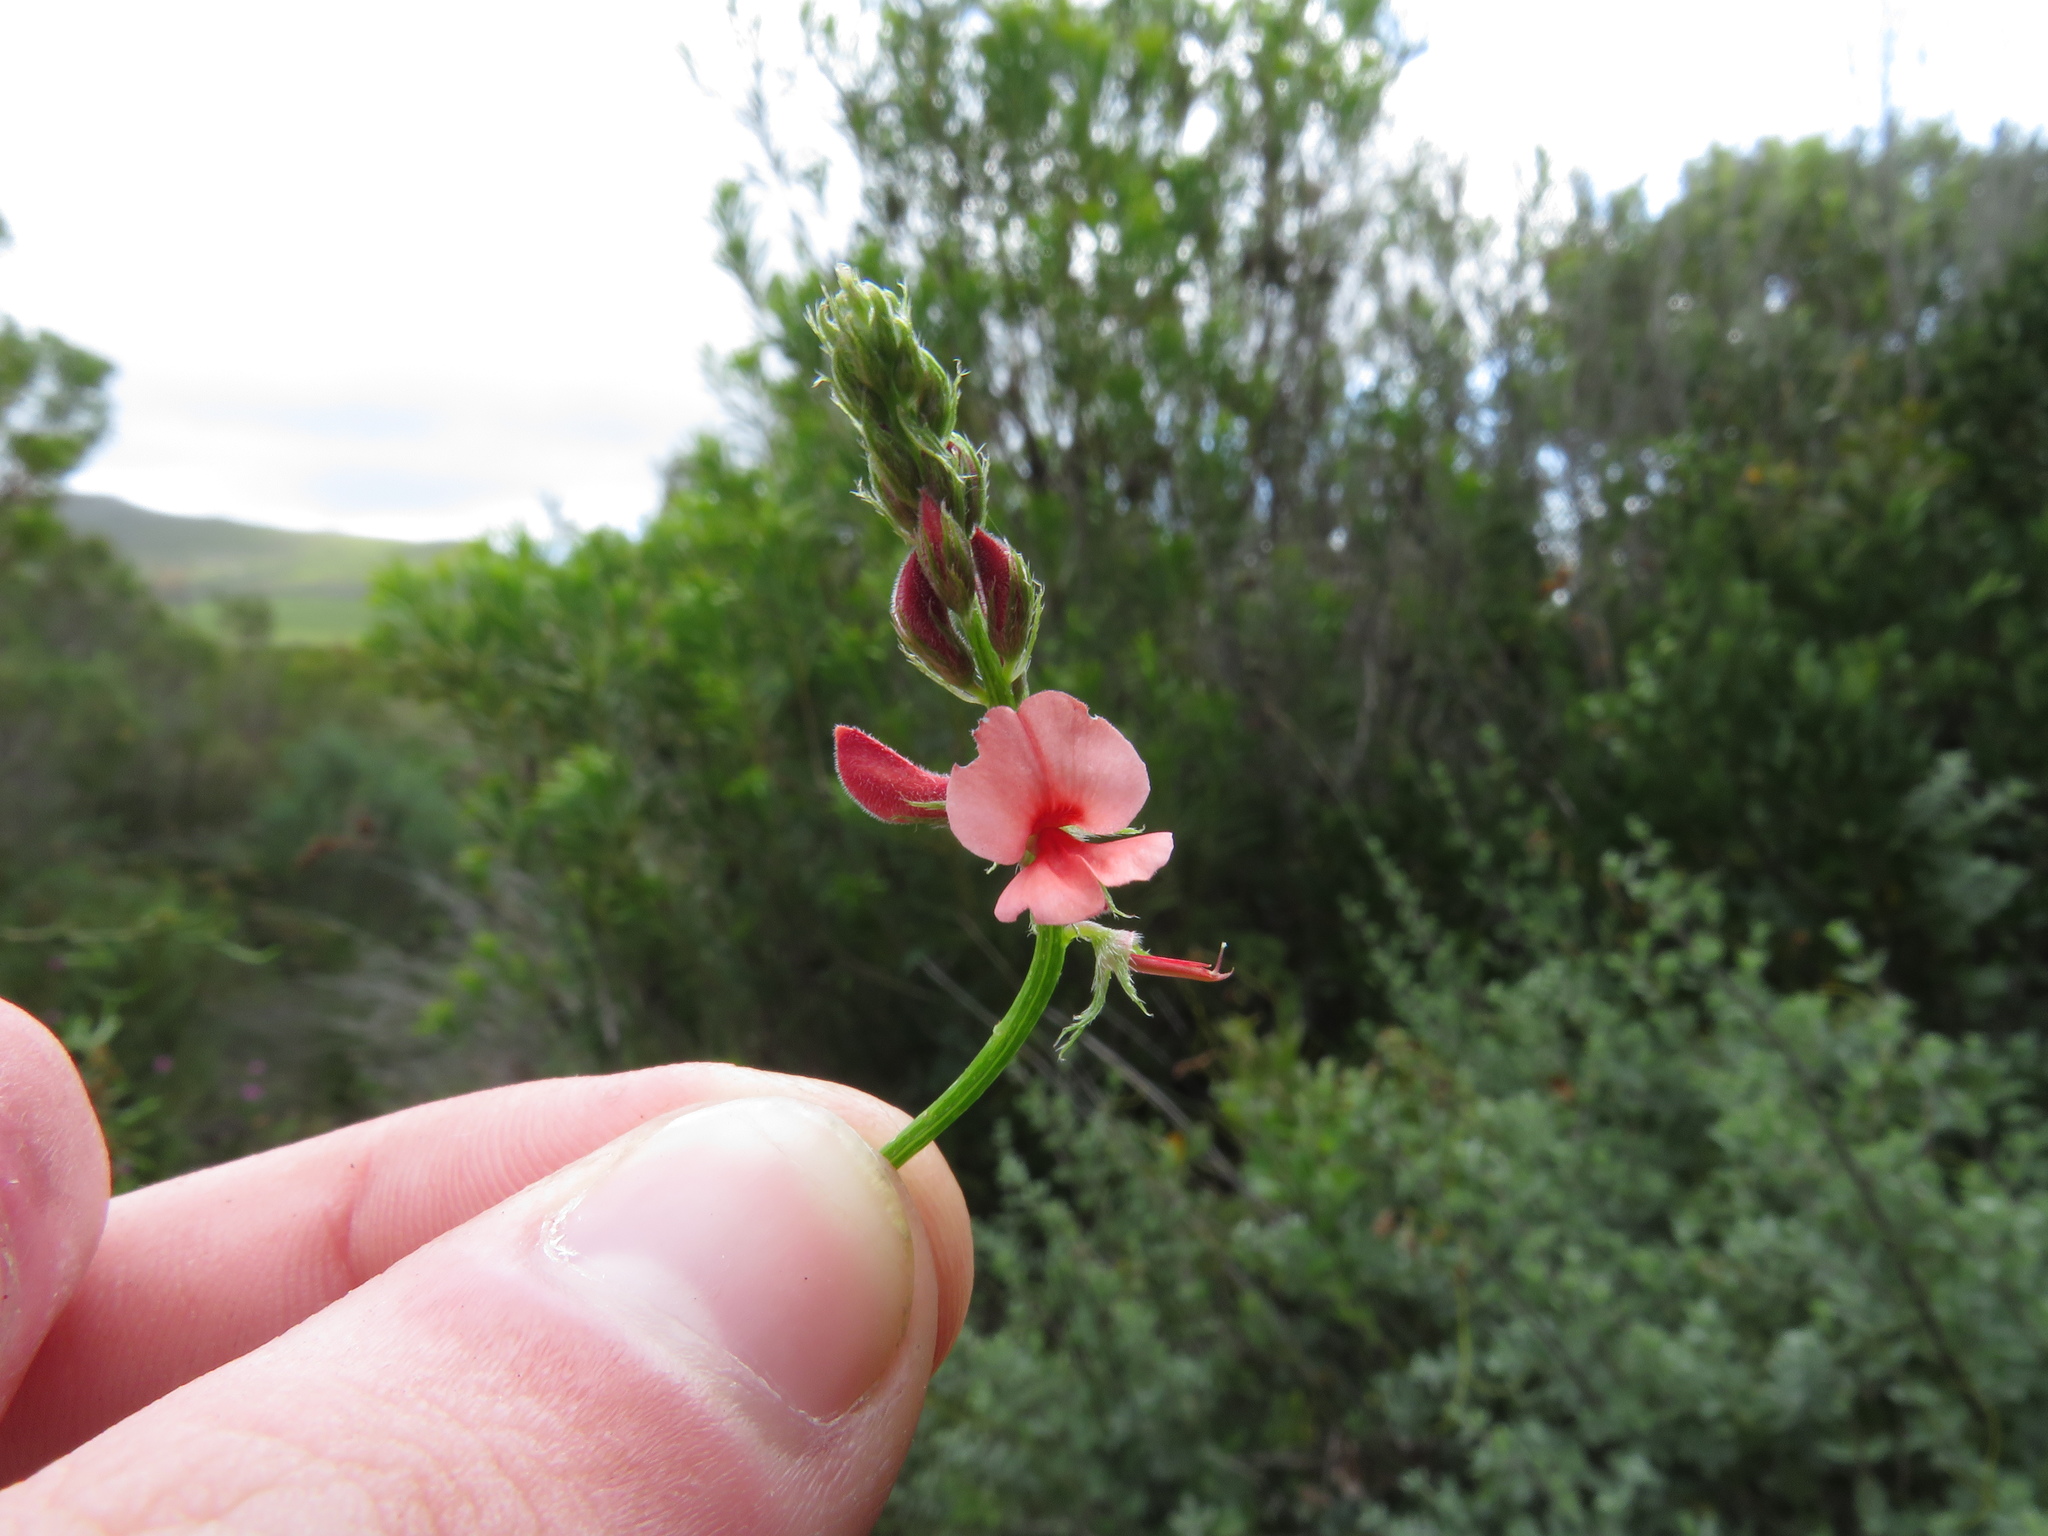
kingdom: Plantae
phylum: Tracheophyta
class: Magnoliopsida
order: Fabales
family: Fabaceae
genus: Indigofera
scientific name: Indigofera heterophylla
